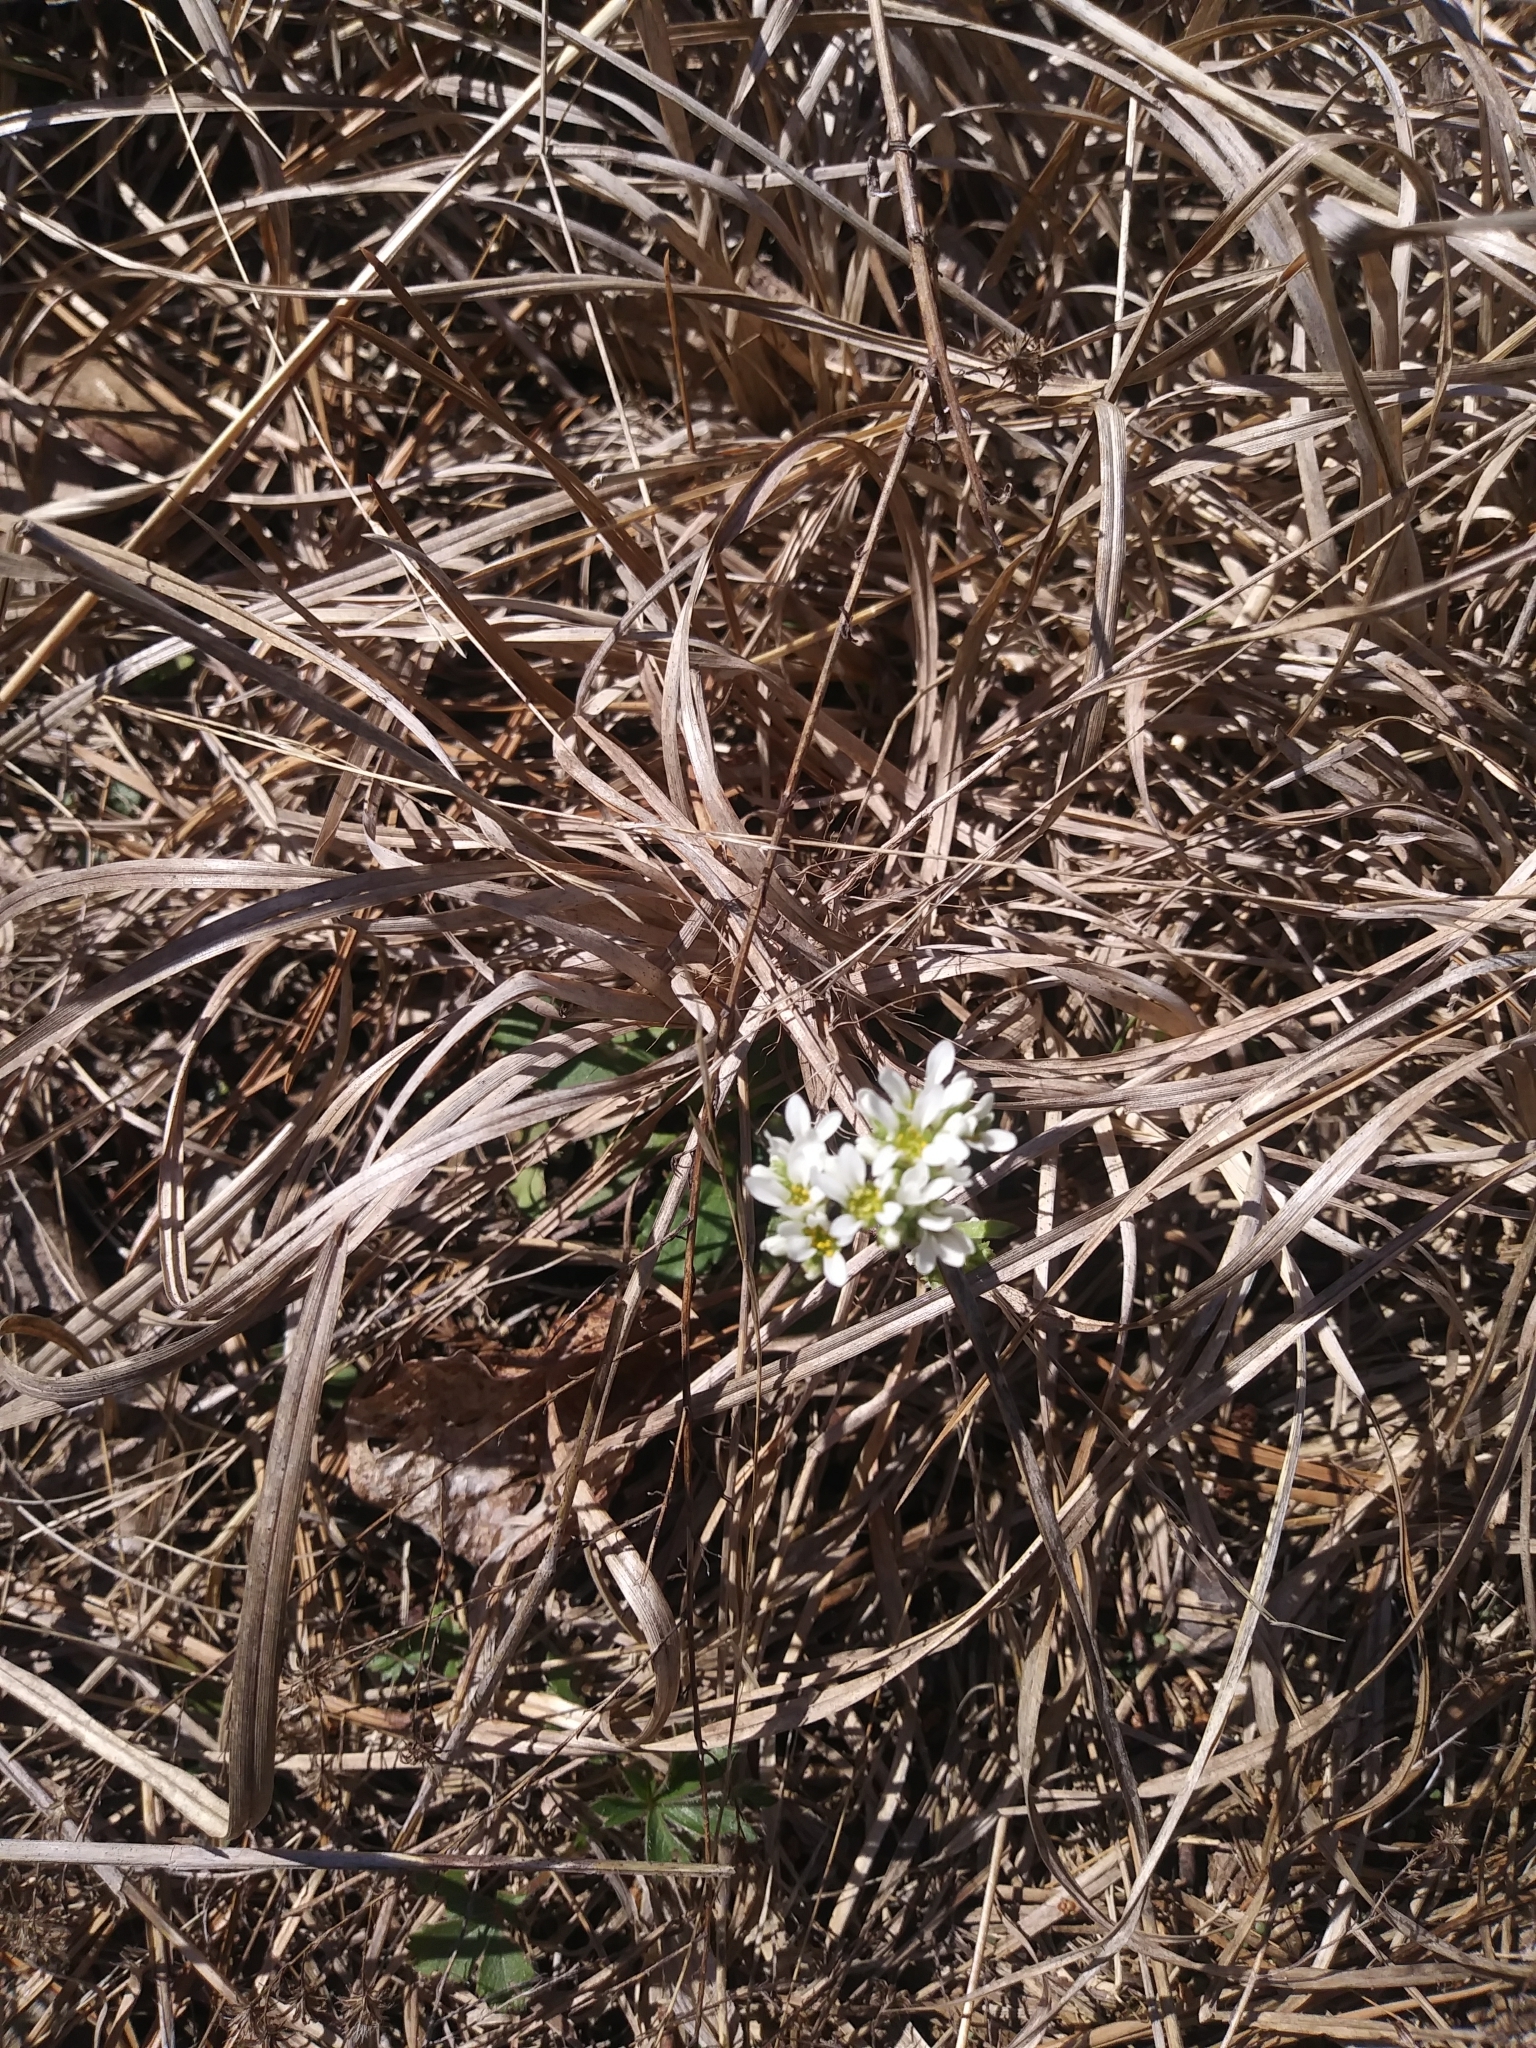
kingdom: Plantae
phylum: Tracheophyta
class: Magnoliopsida
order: Saxifragales
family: Saxifragaceae
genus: Micranthes
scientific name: Micranthes virginiensis
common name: Early saxifrage
